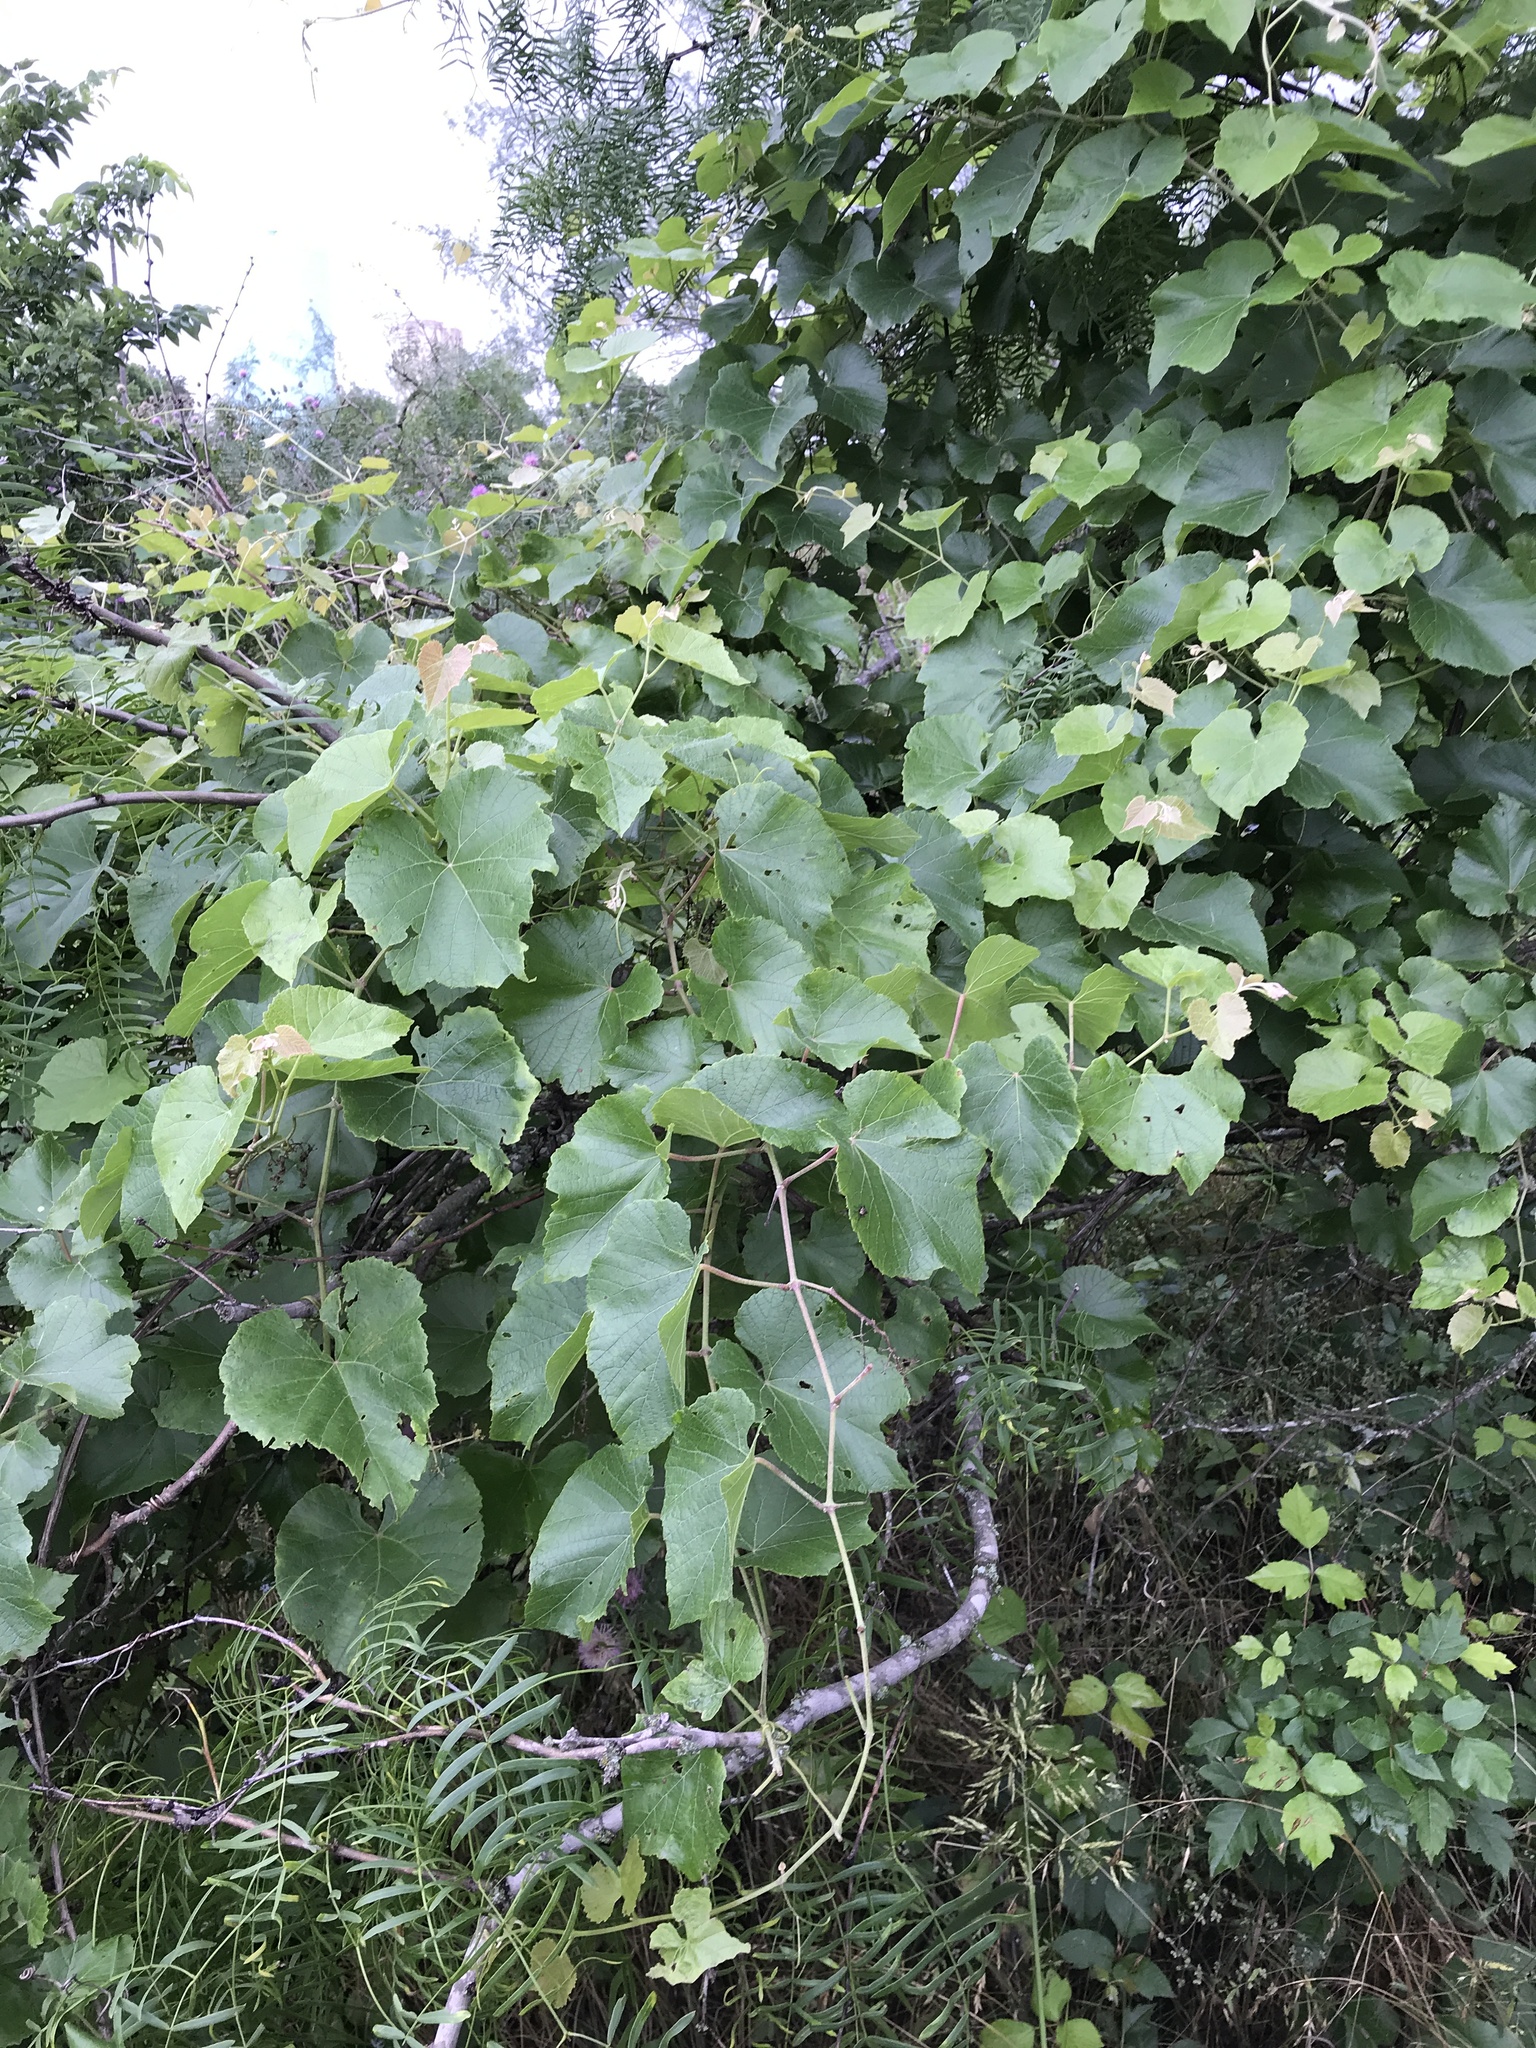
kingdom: Plantae
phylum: Tracheophyta
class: Magnoliopsida
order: Vitales
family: Vitaceae
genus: Vitis
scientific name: Vitis cinerea
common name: Ashy grape
